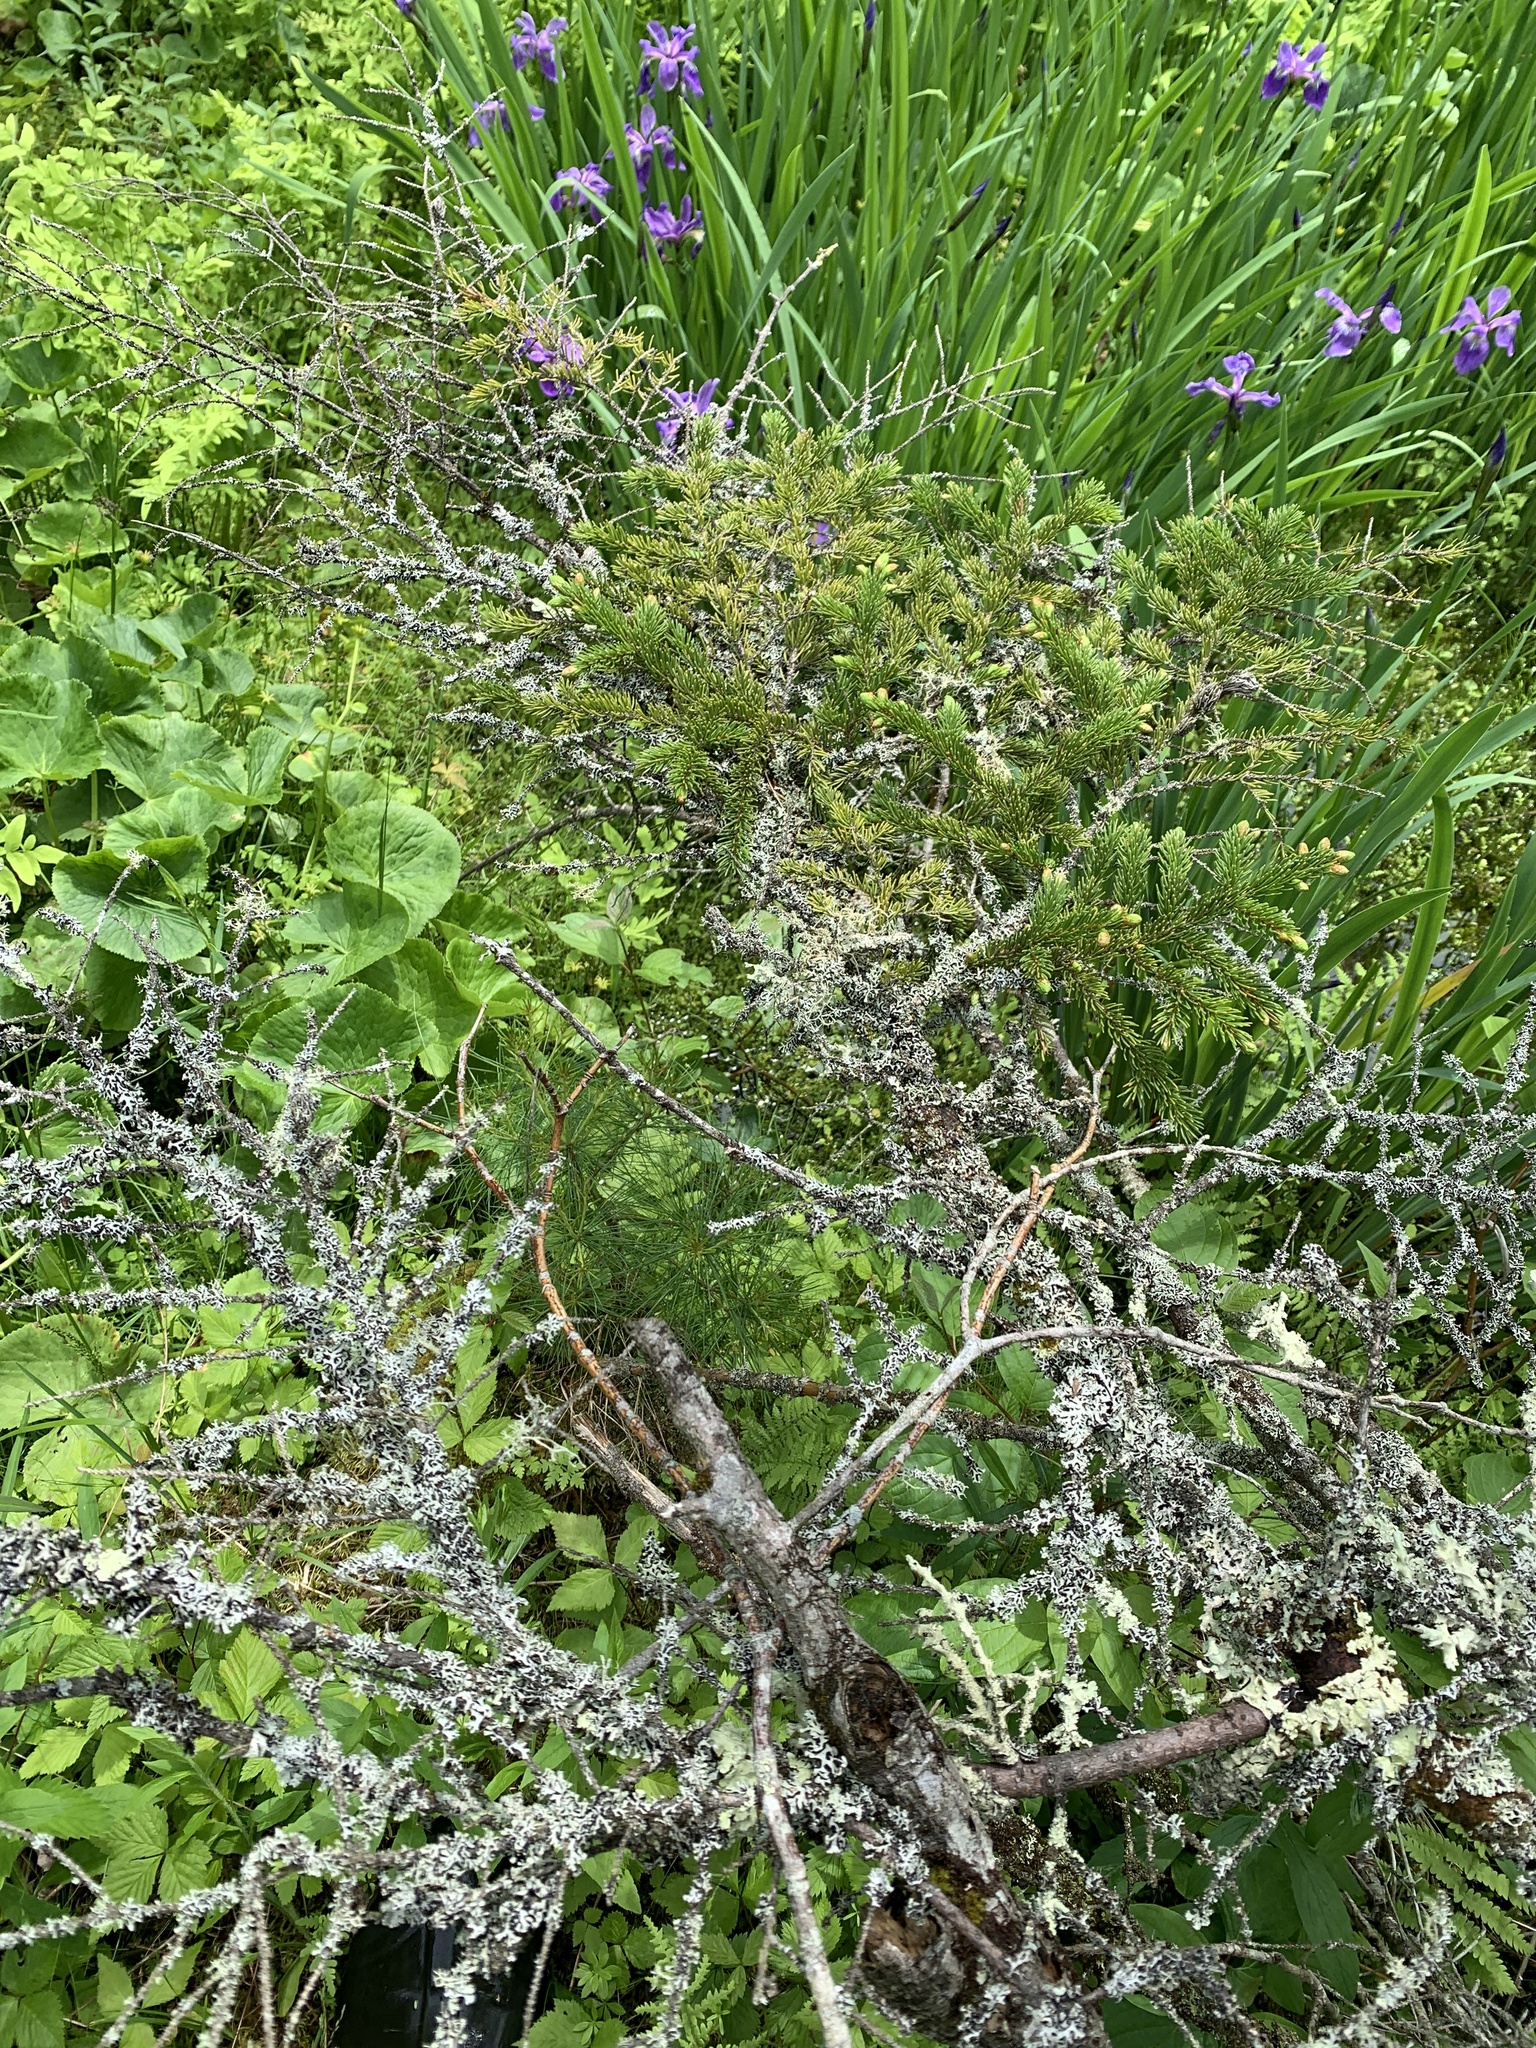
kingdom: Plantae
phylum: Tracheophyta
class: Pinopsida
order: Pinales
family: Pinaceae
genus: Picea
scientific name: Picea rubens
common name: Red spruce
